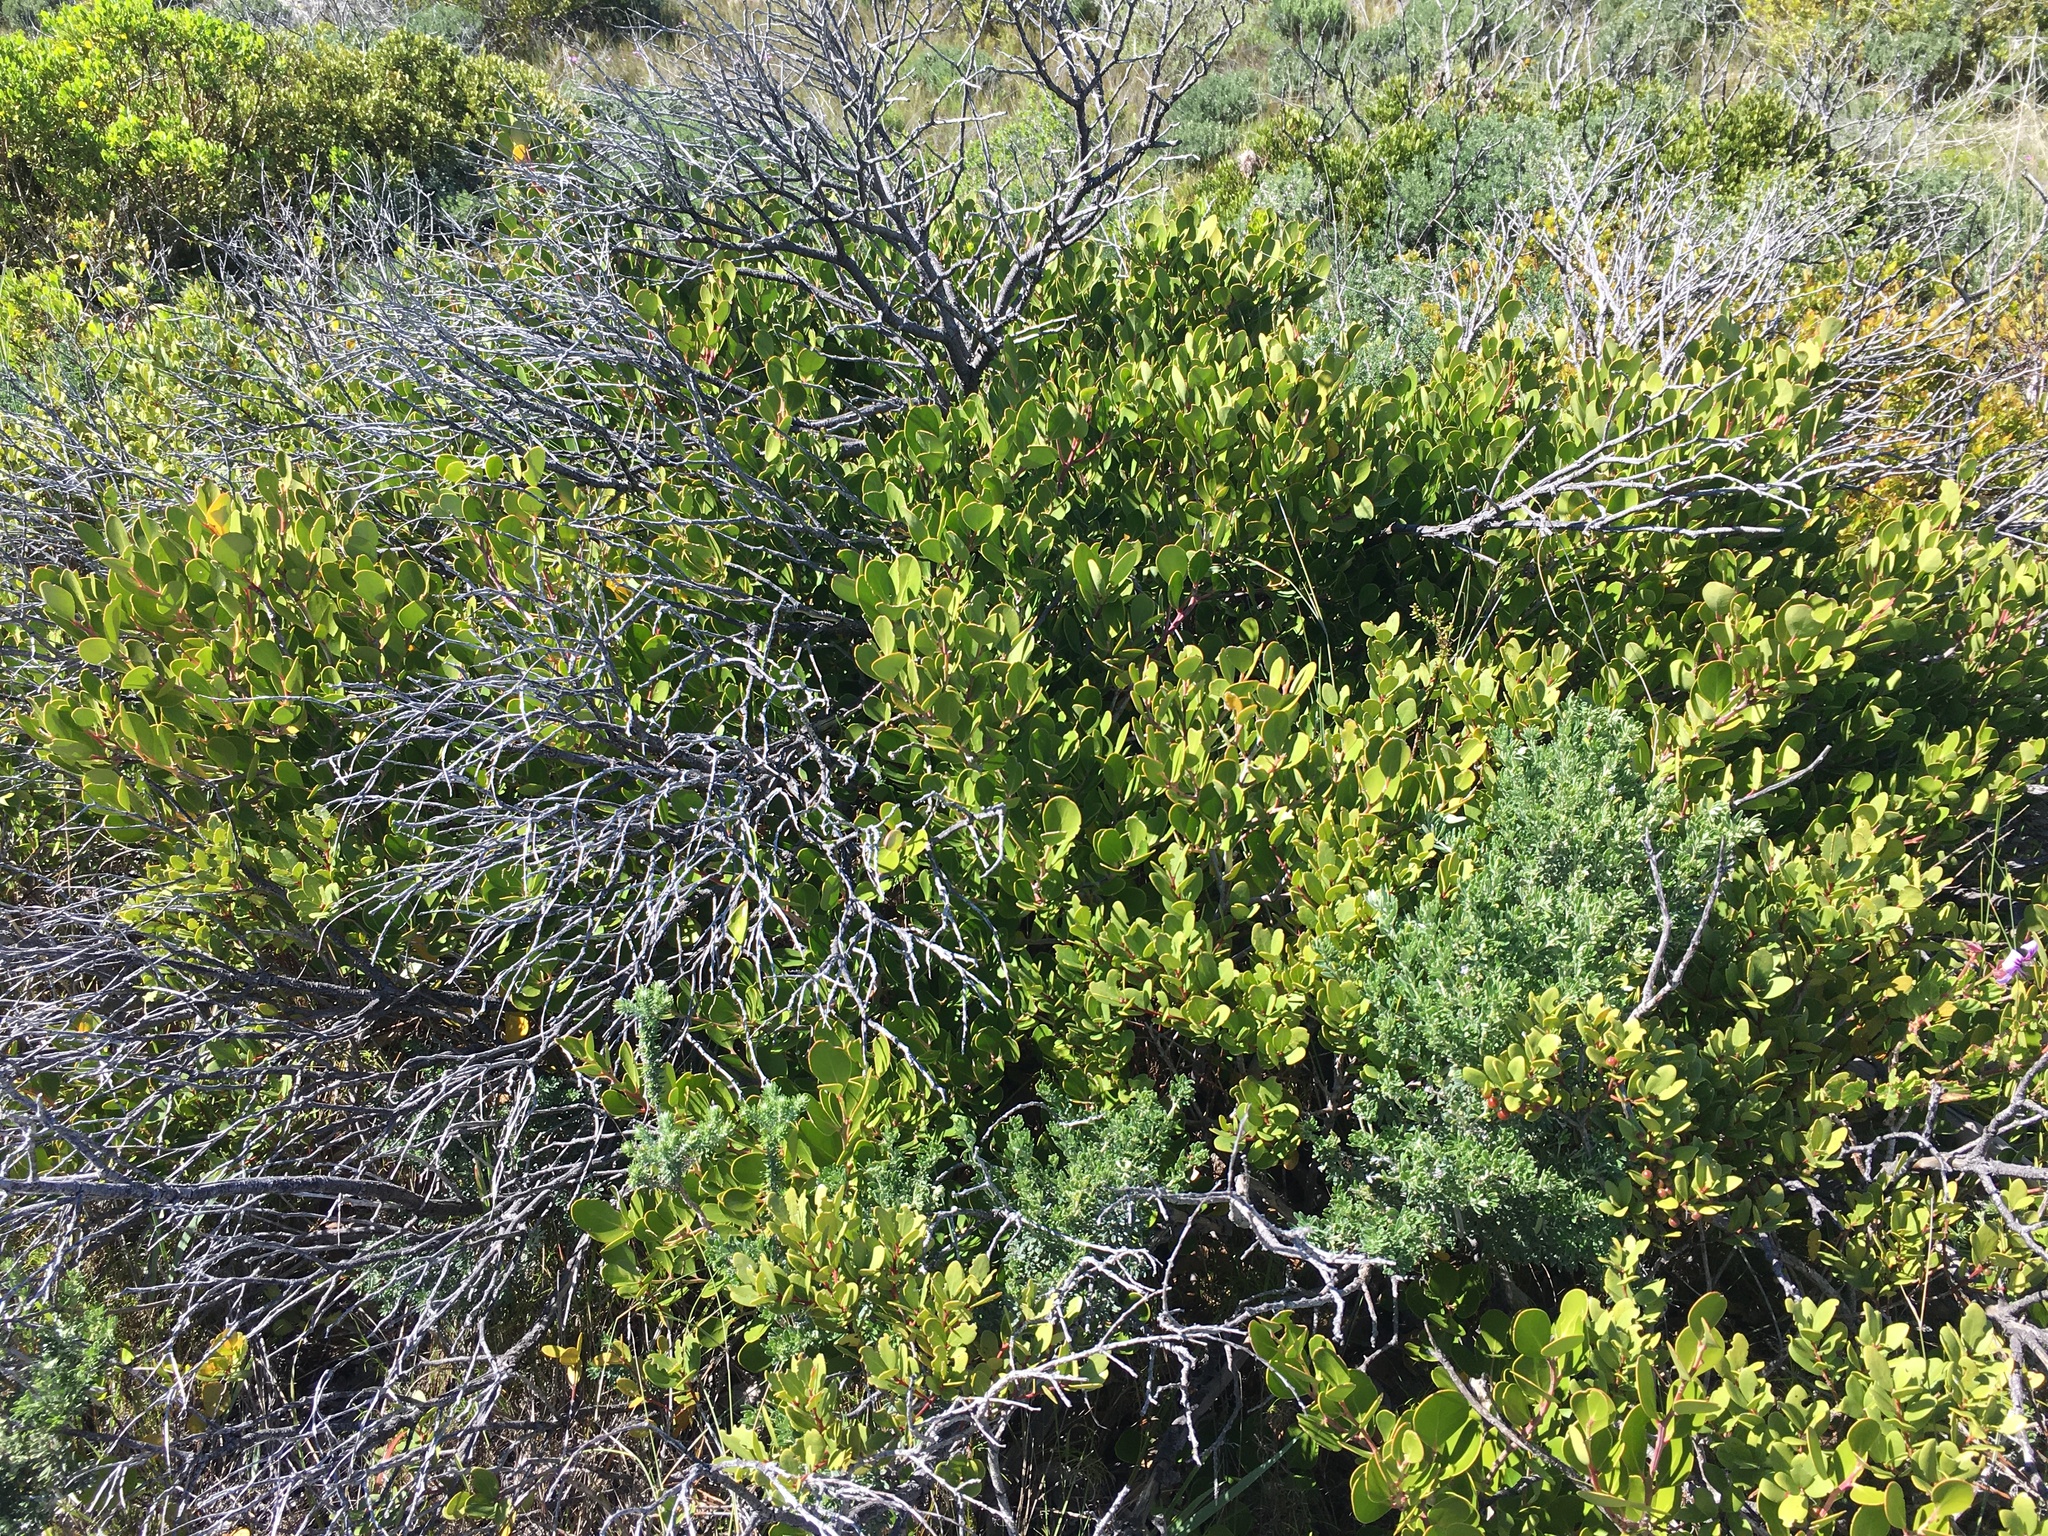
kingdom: Plantae
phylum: Tracheophyta
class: Magnoliopsida
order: Ericales
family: Ebenaceae
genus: Euclea
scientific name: Euclea racemosa
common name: Dune guarri
